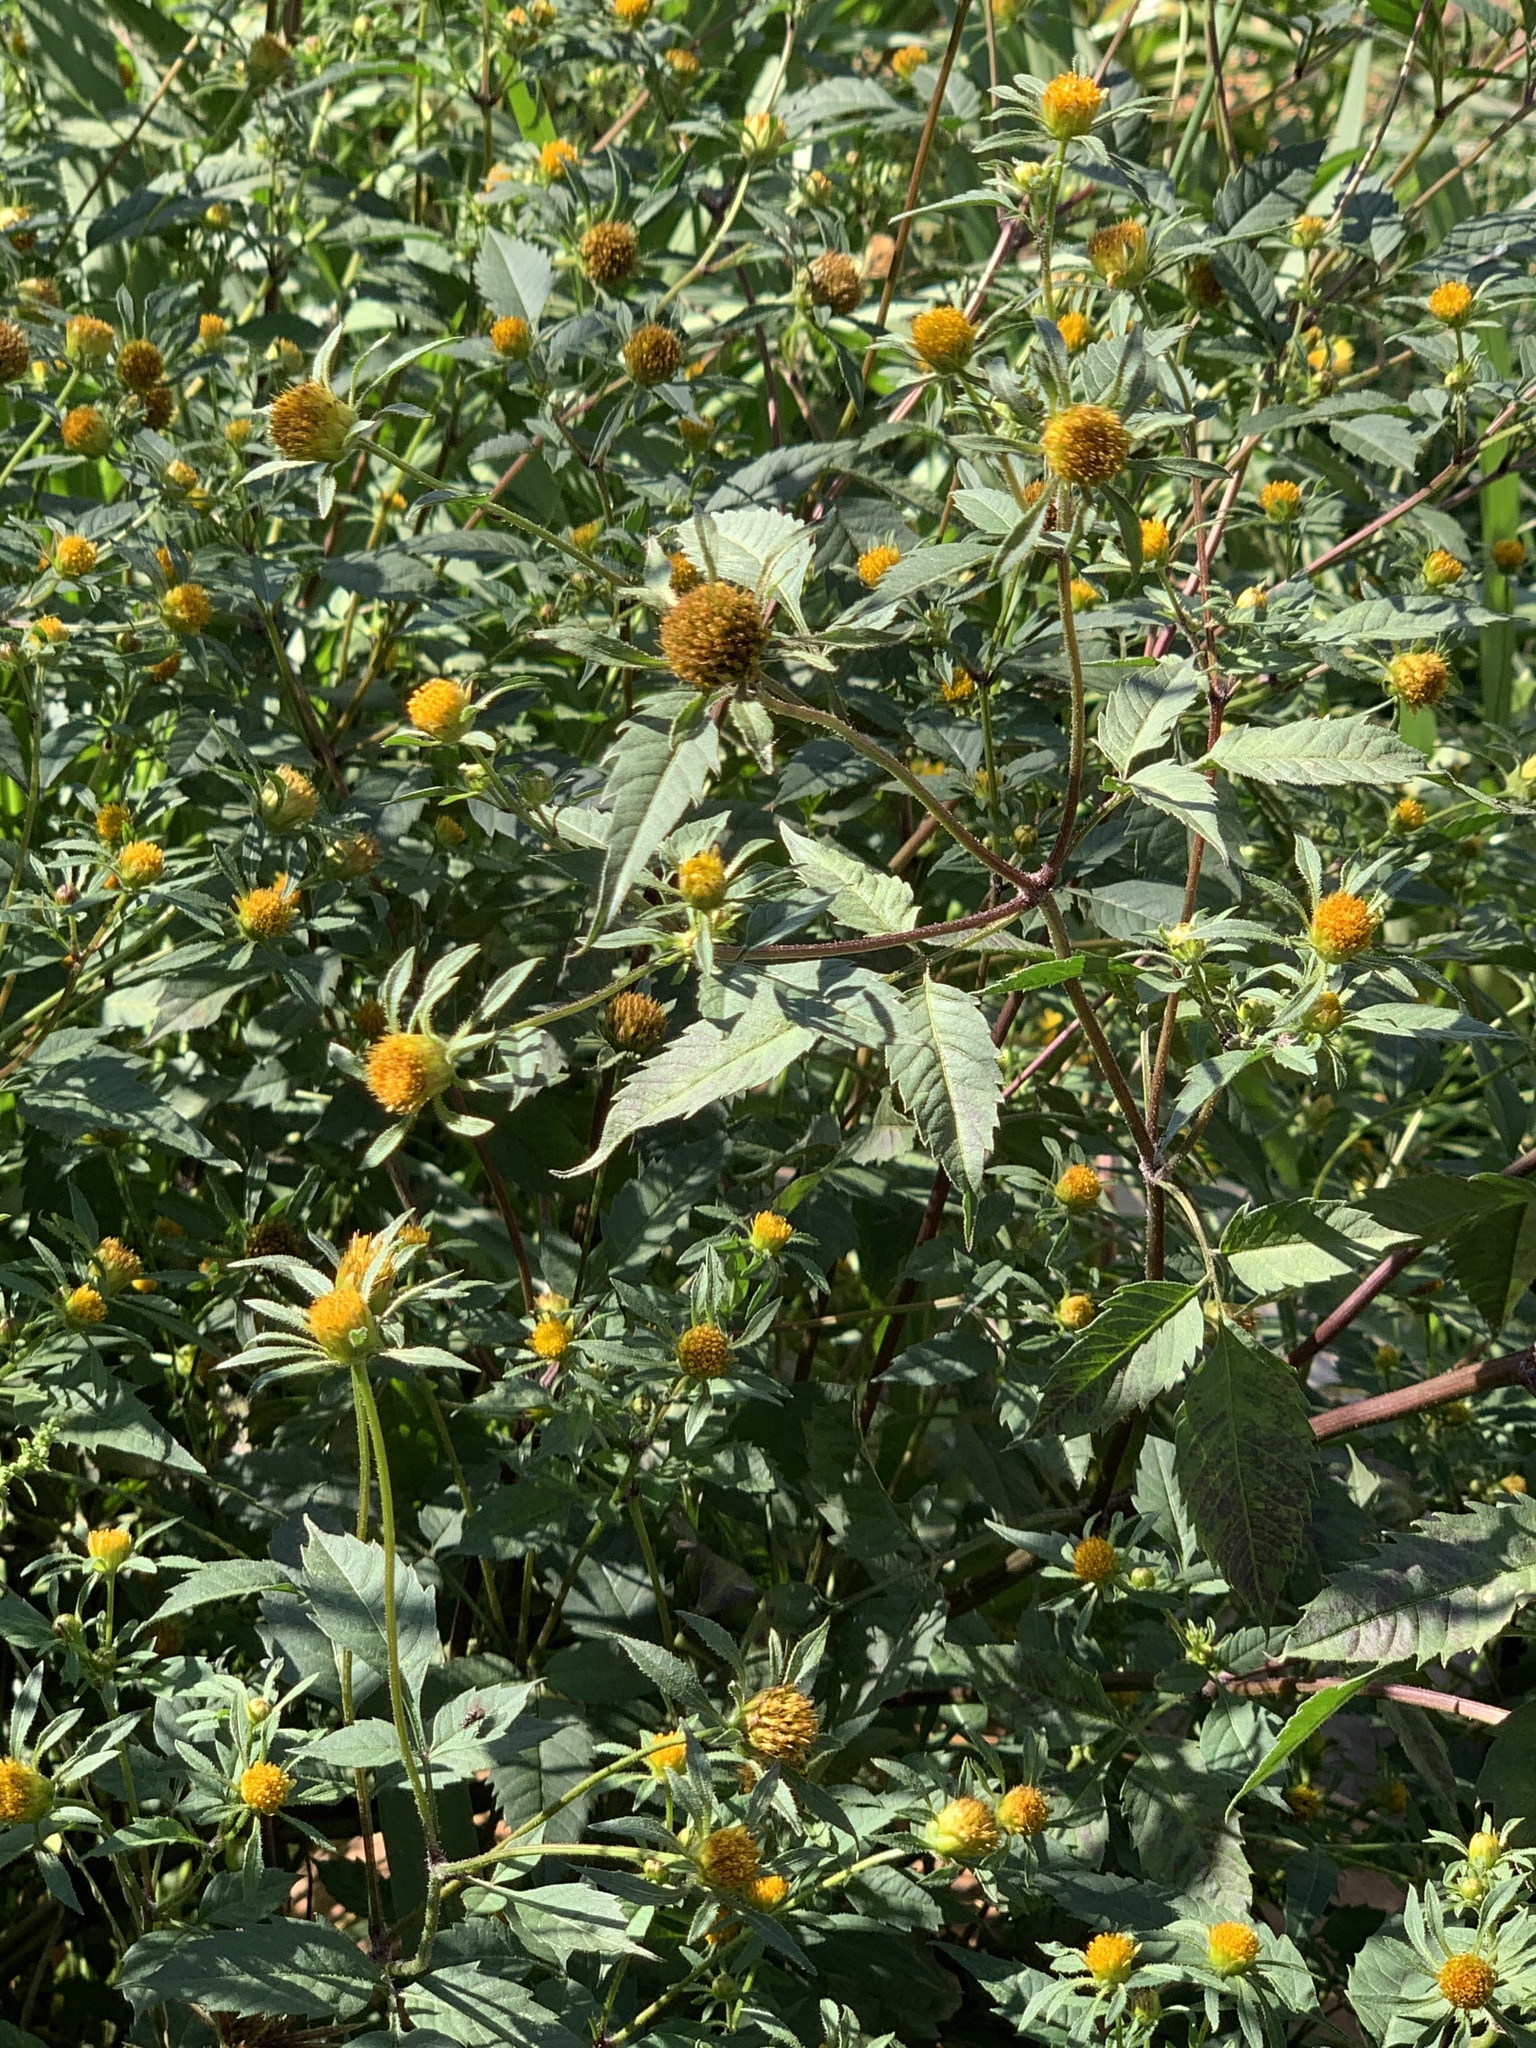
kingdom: Plantae
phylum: Tracheophyta
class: Magnoliopsida
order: Asterales
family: Asteraceae
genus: Bidens
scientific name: Bidens pilosa
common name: Black-jack
